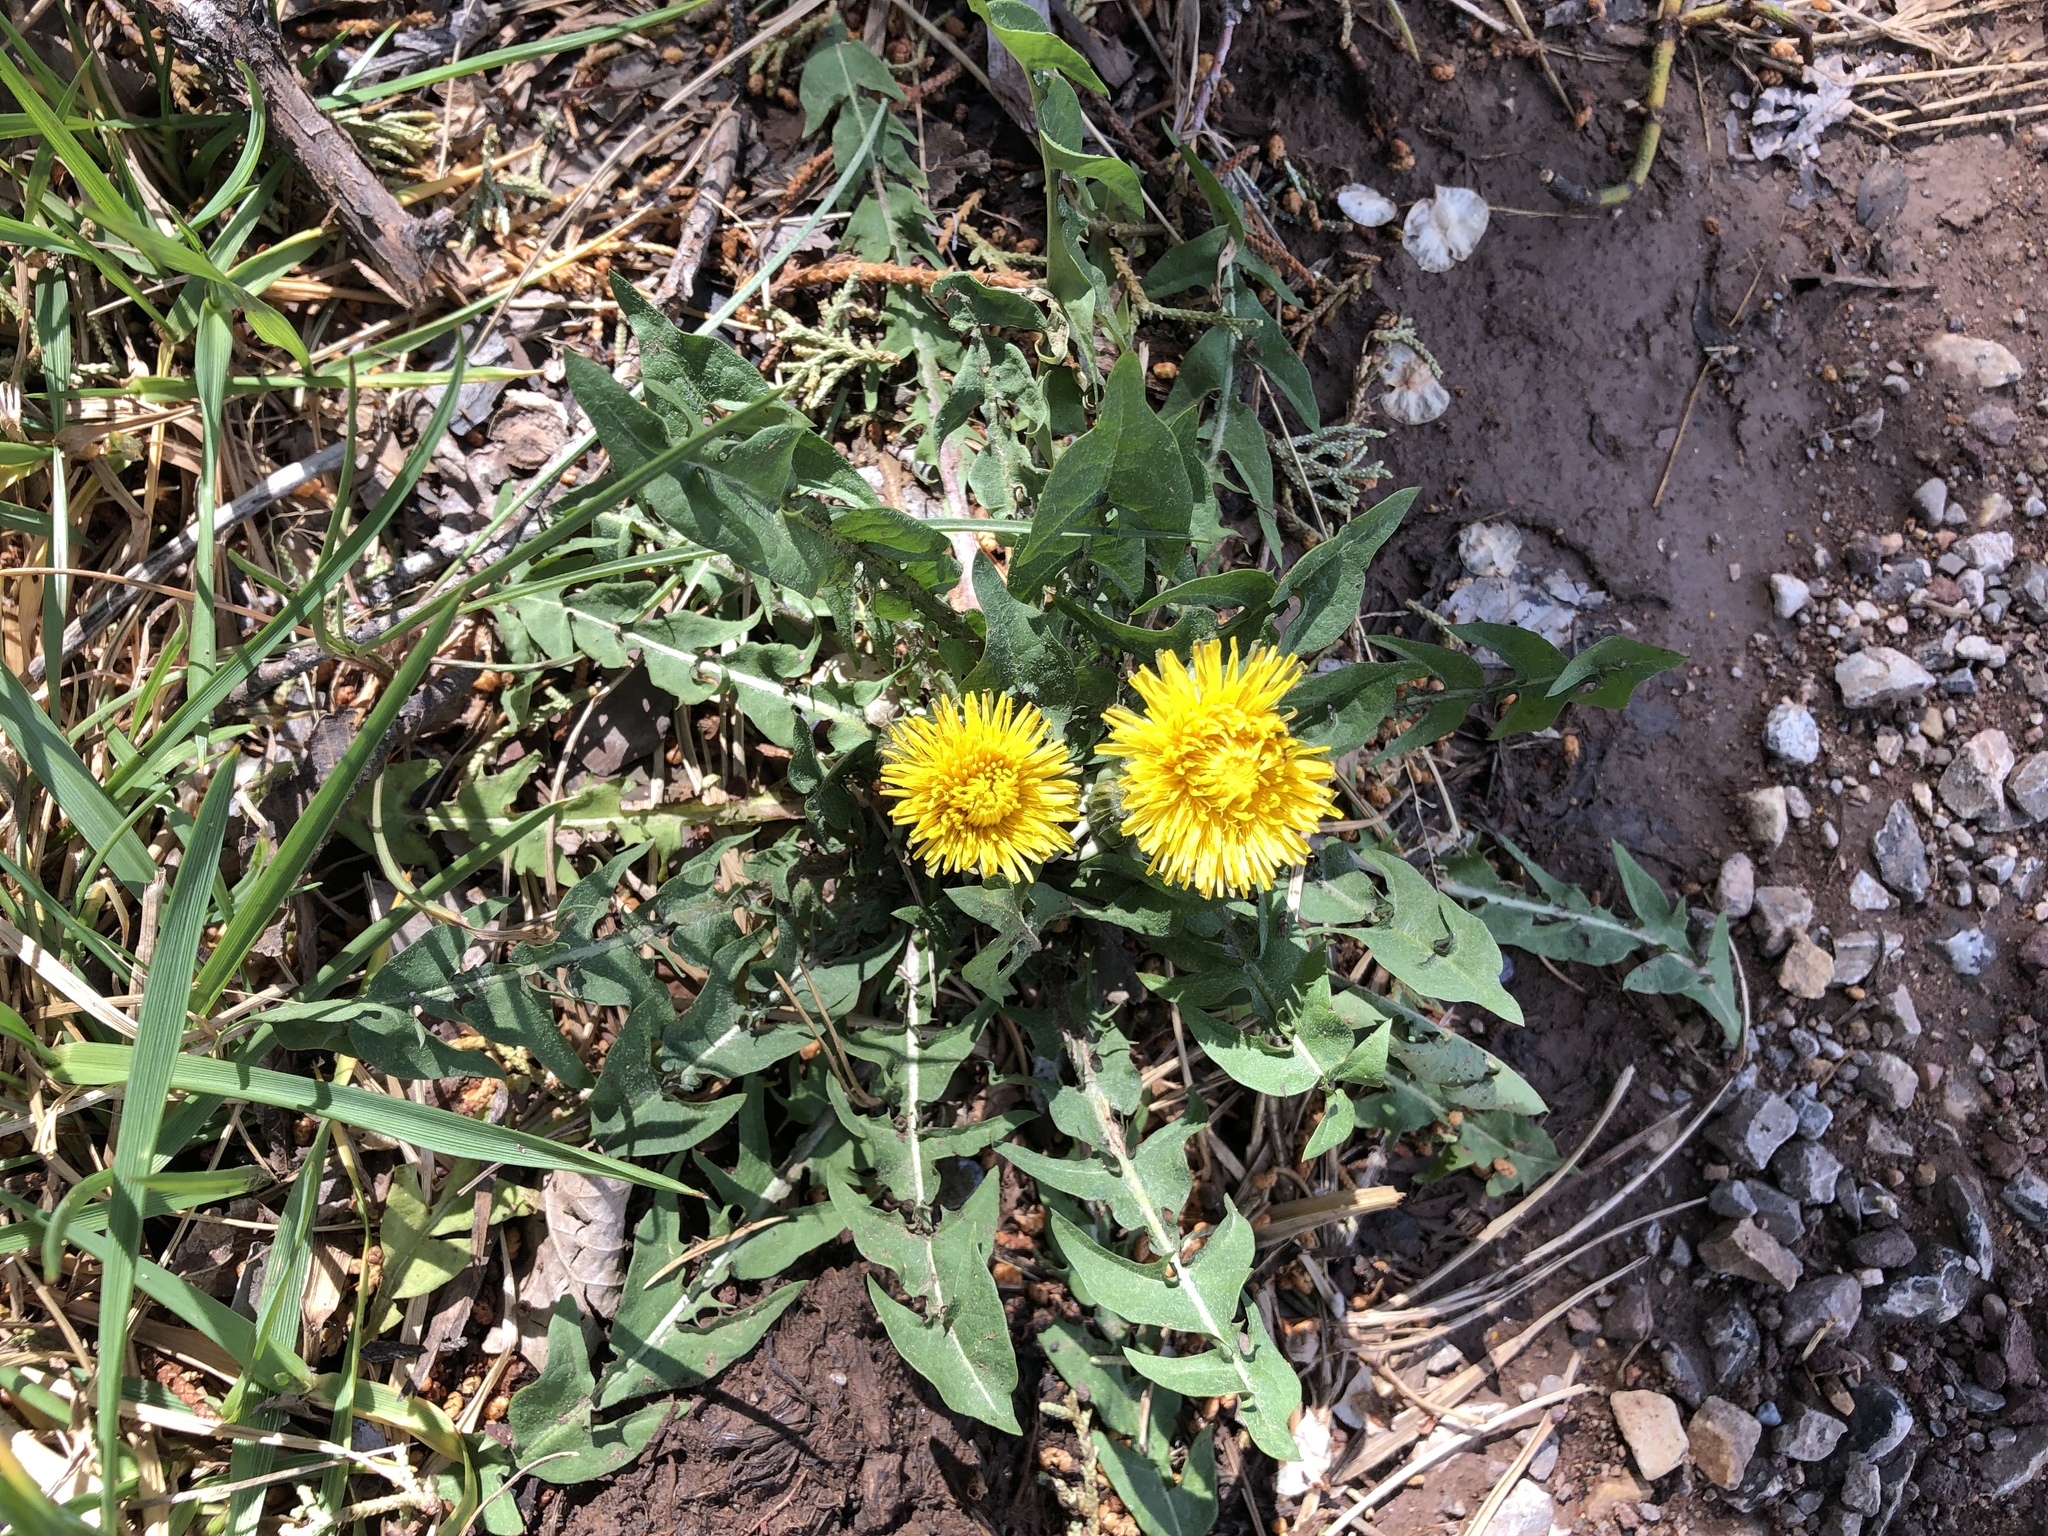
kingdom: Plantae
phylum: Tracheophyta
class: Magnoliopsida
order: Asterales
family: Asteraceae
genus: Taraxacum
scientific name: Taraxacum officinale
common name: Common dandelion
